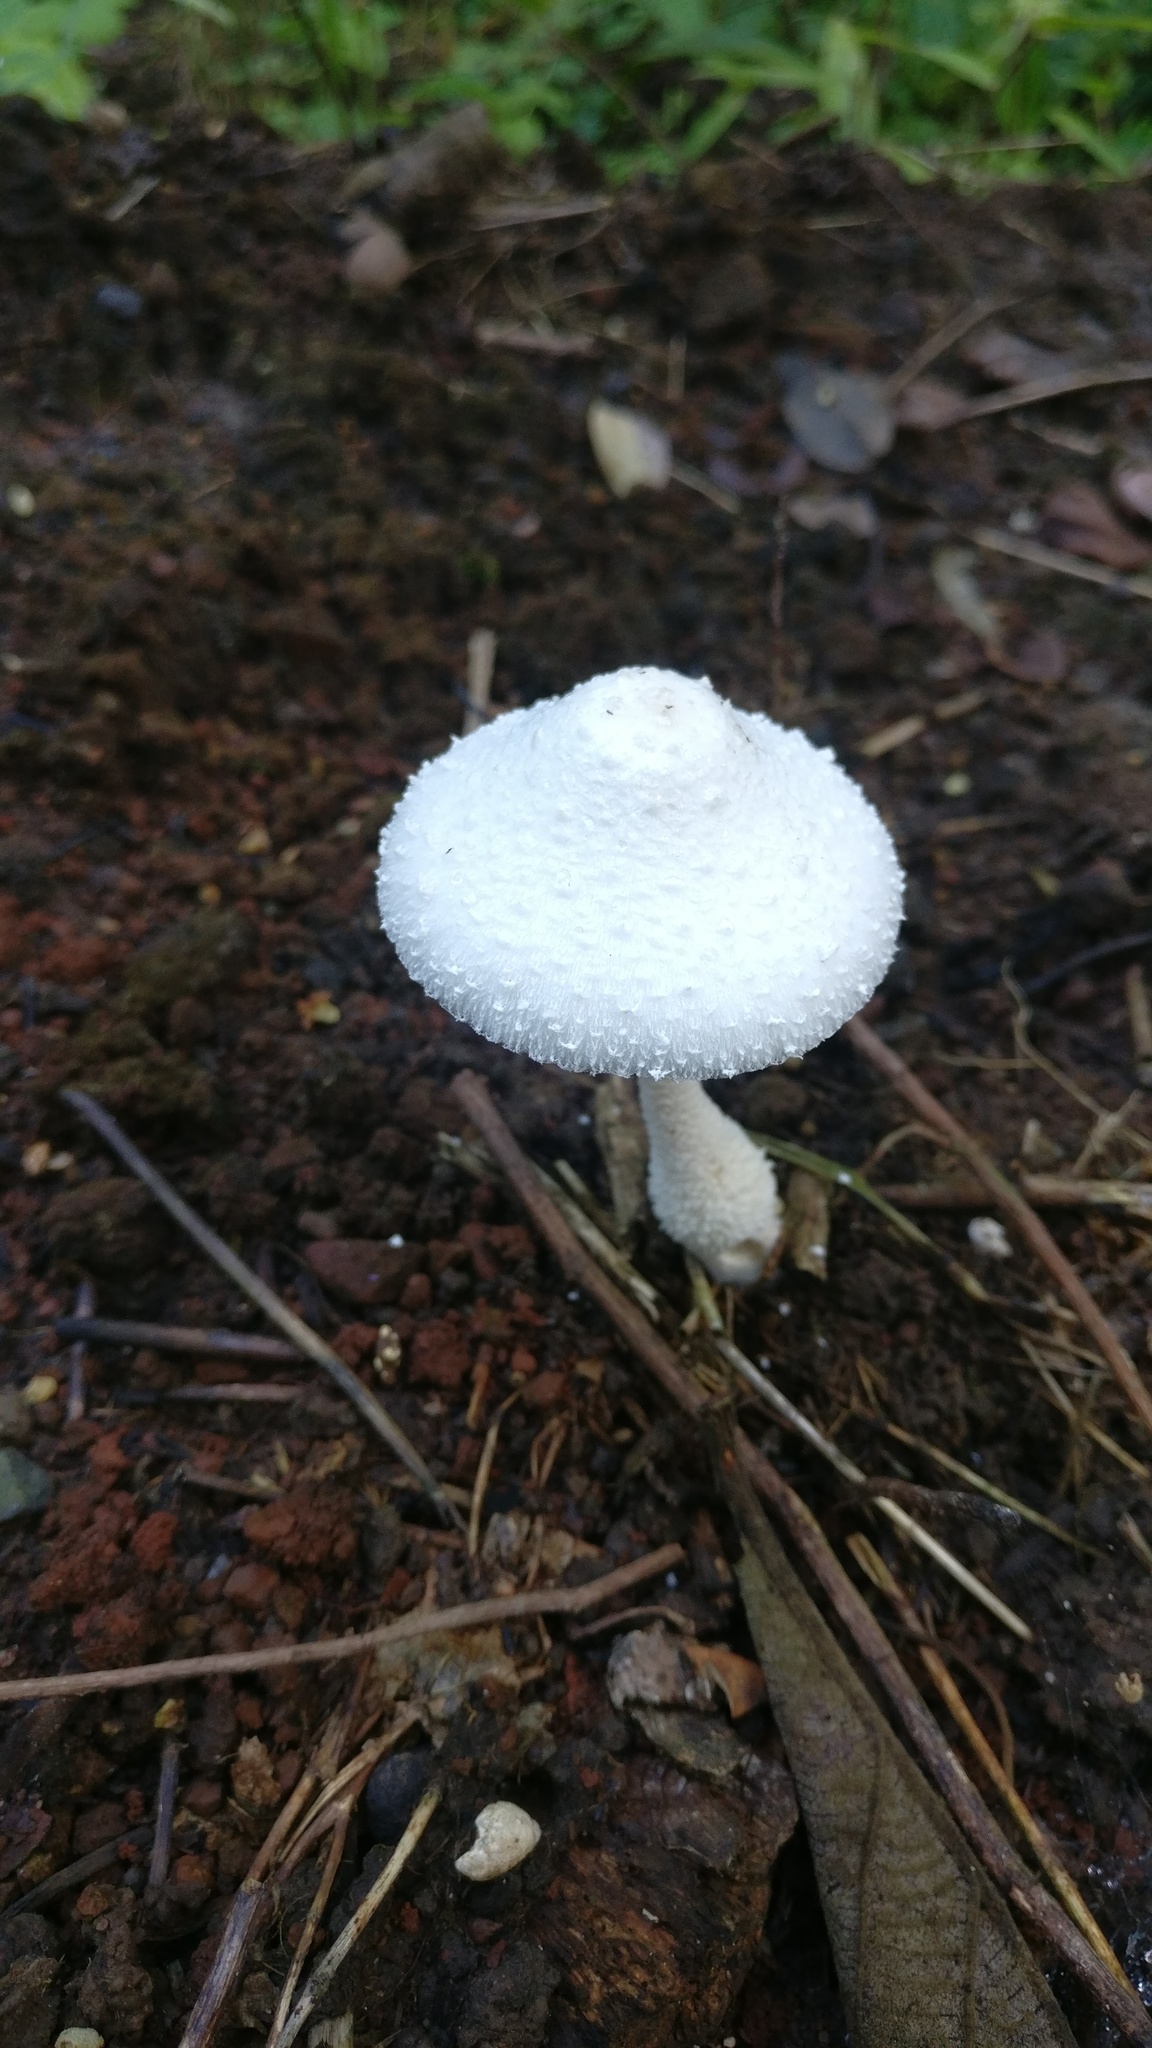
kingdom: Fungi
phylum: Basidiomycota
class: Agaricomycetes
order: Agaricales
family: Agaricaceae
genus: Leucocoprinus
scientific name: Leucocoprinus cretaceus
